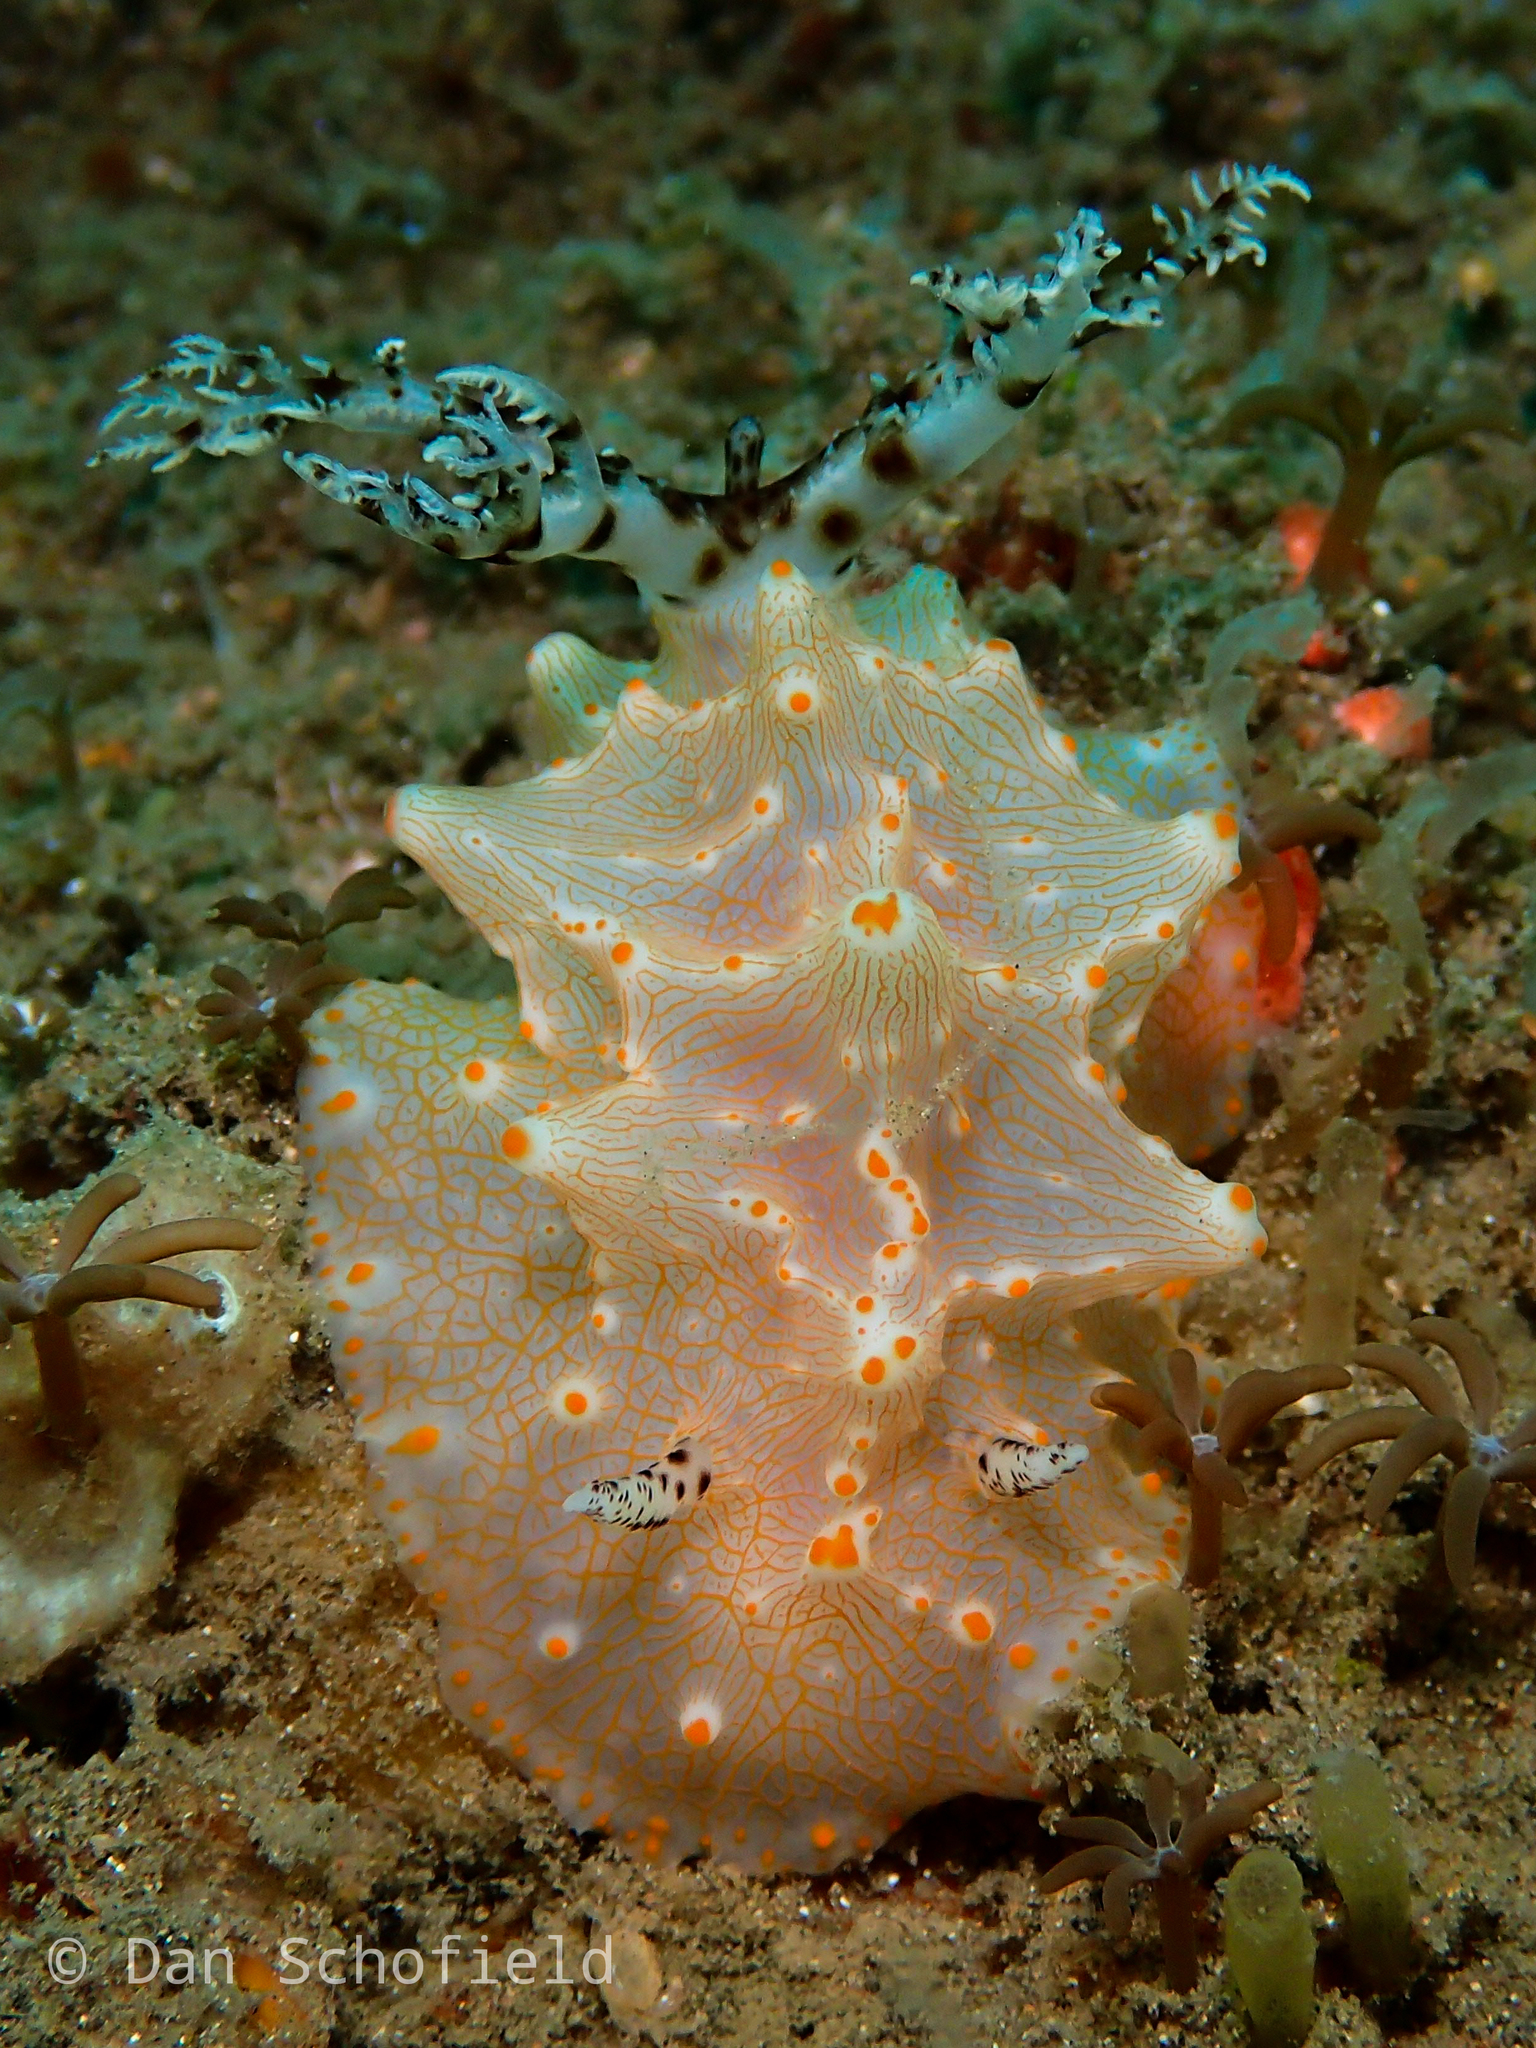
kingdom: Animalia
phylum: Mollusca
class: Gastropoda
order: Nudibranchia
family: Discodorididae
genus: Halgerda
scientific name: Halgerda batangas
